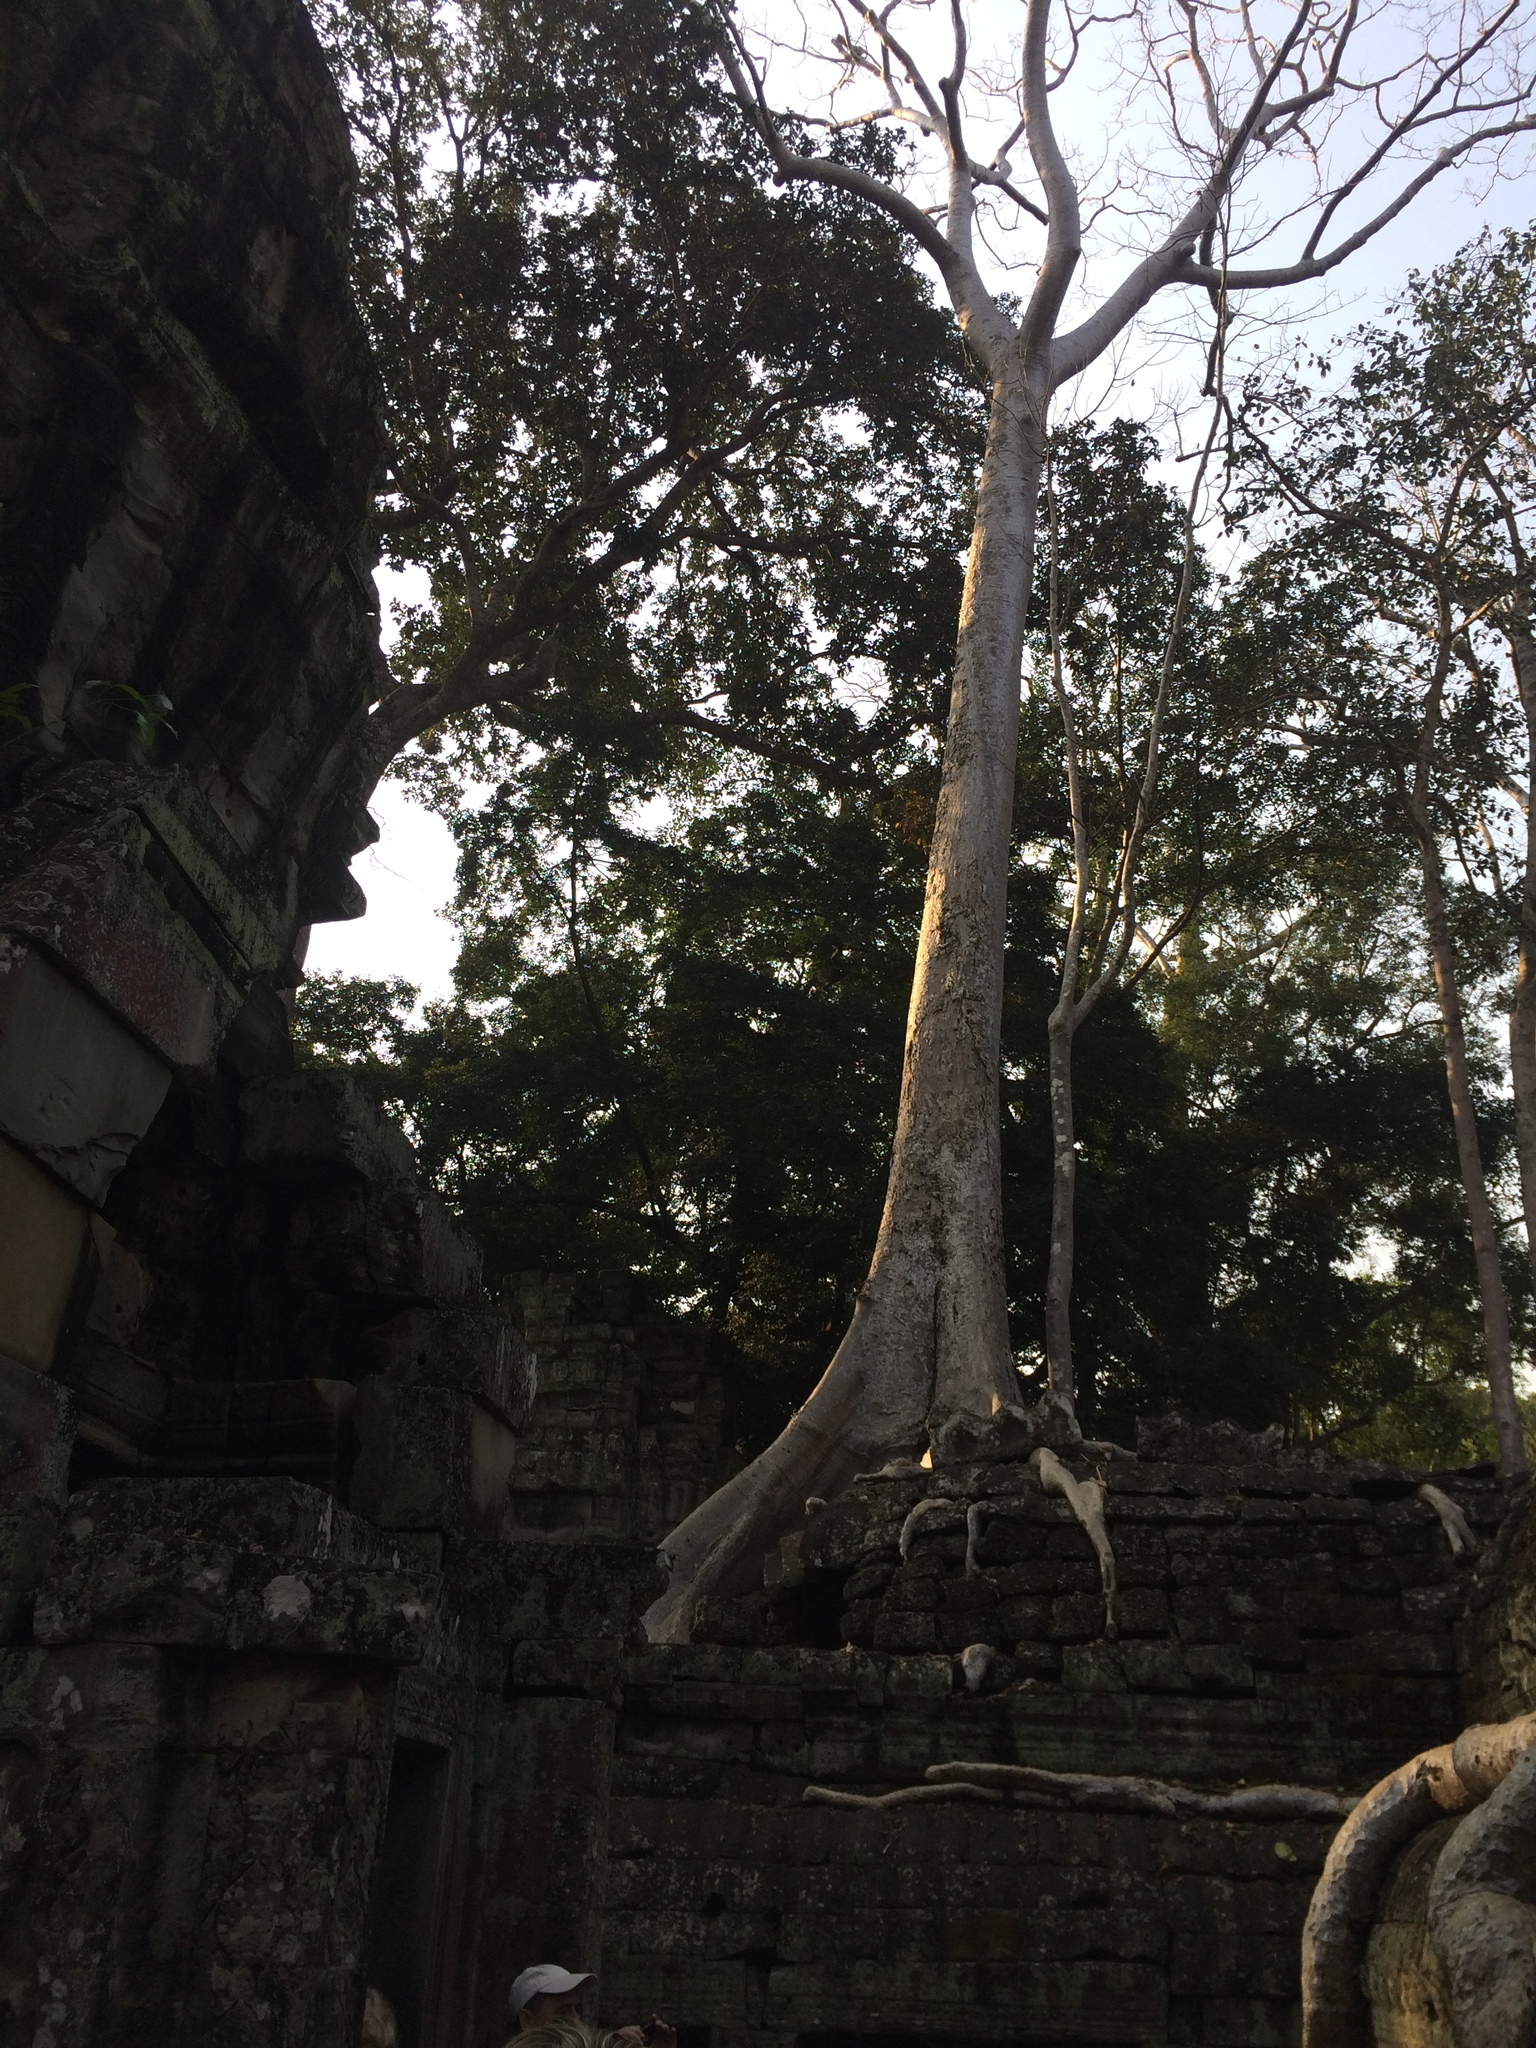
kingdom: Plantae
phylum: Tracheophyta
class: Magnoliopsida
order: Cucurbitales
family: Tetramelaceae
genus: Tetrameles
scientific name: Tetrameles nudiflora
